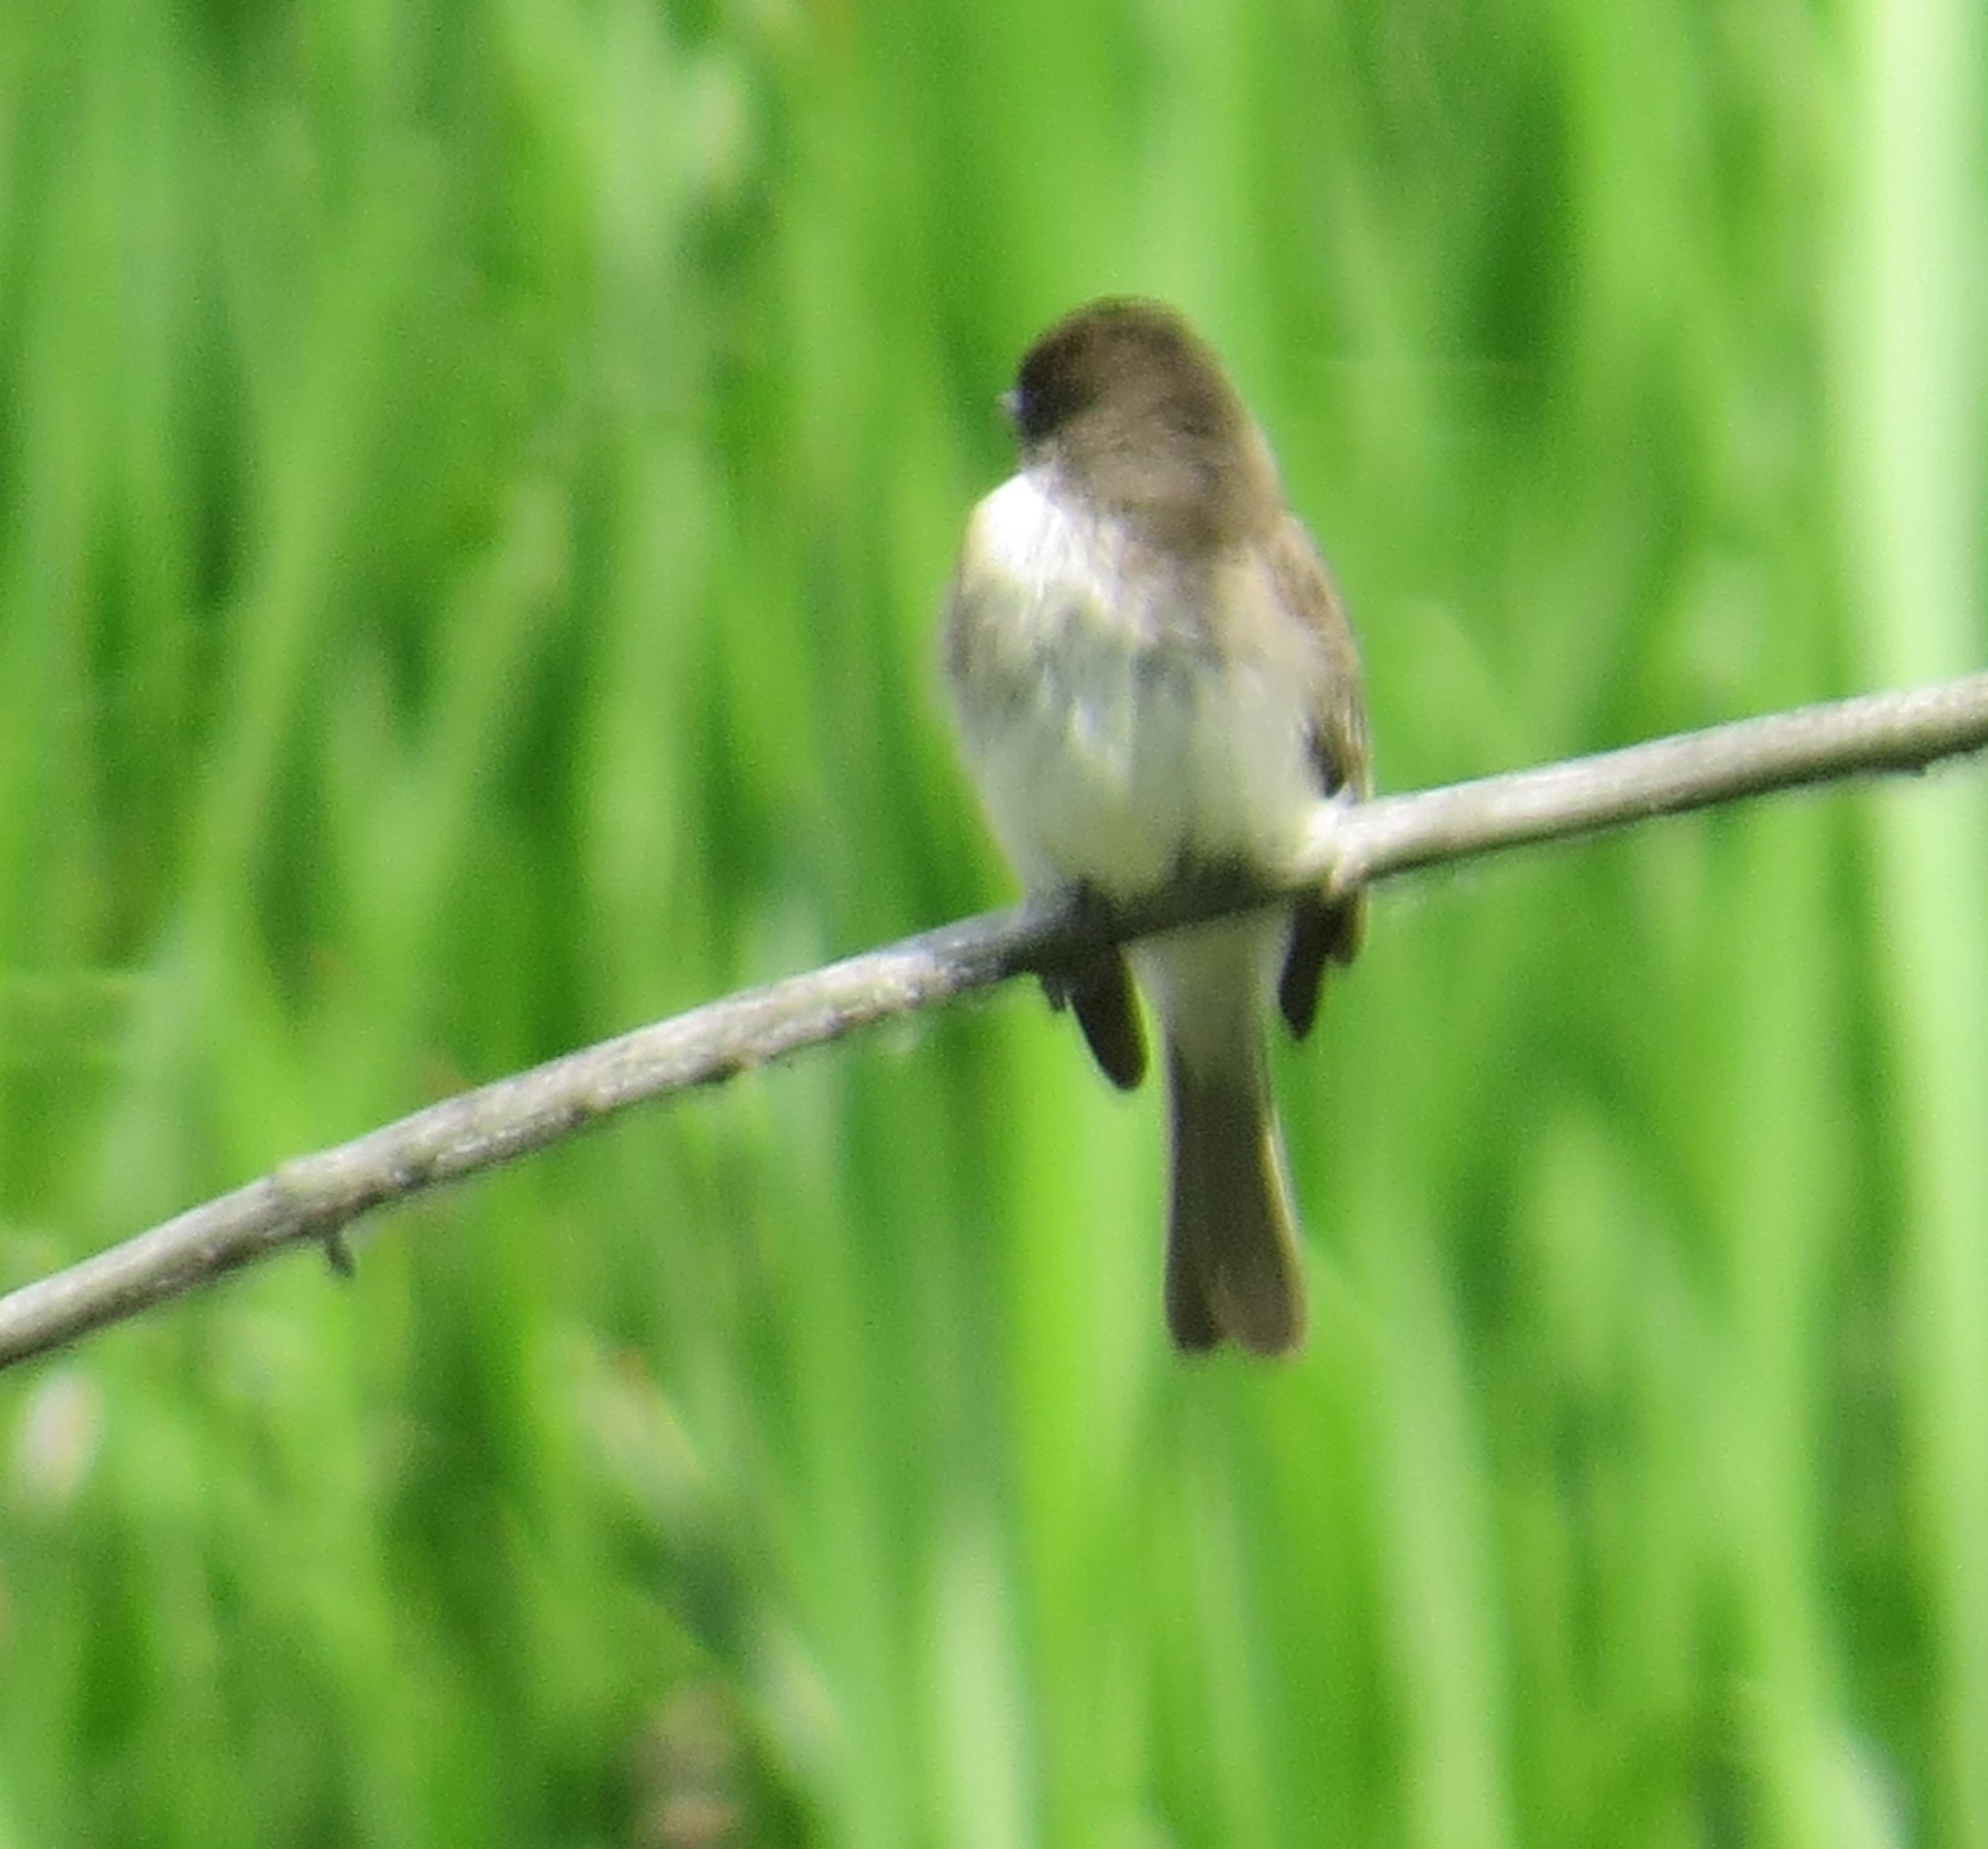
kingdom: Animalia
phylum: Chordata
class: Aves
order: Passeriformes
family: Tyrannidae
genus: Sayornis
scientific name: Sayornis phoebe
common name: Eastern phoebe
